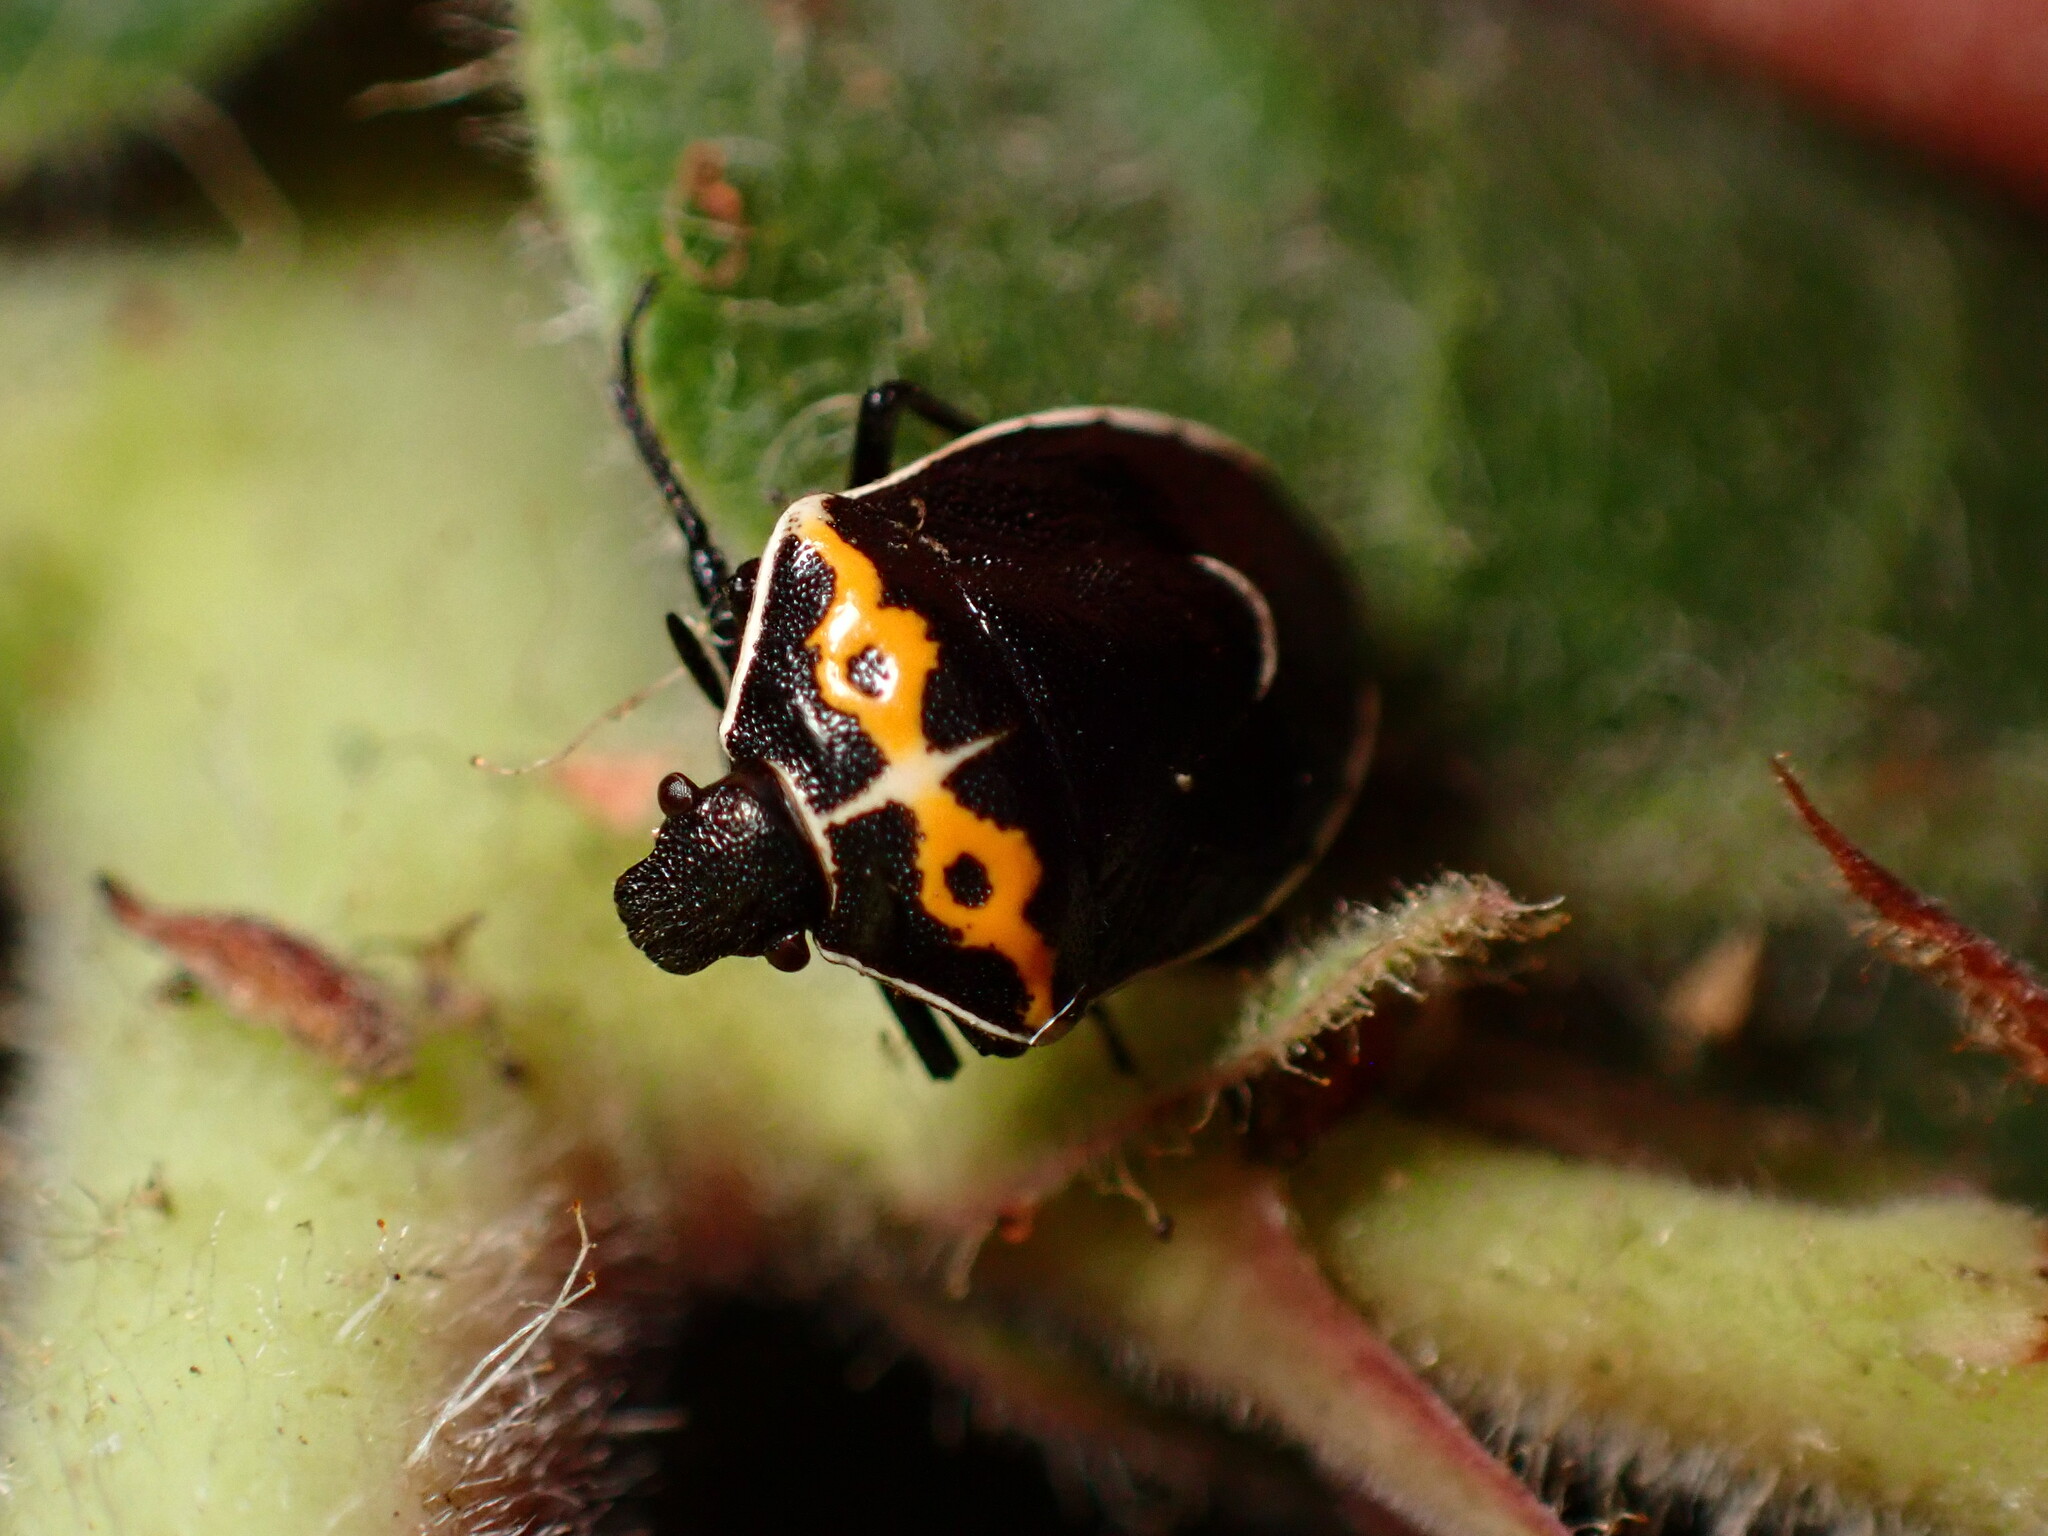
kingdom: Animalia
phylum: Arthropoda
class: Insecta
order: Hemiptera
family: Pentatomidae
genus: Cosmopepla
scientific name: Cosmopepla conspicillaris
